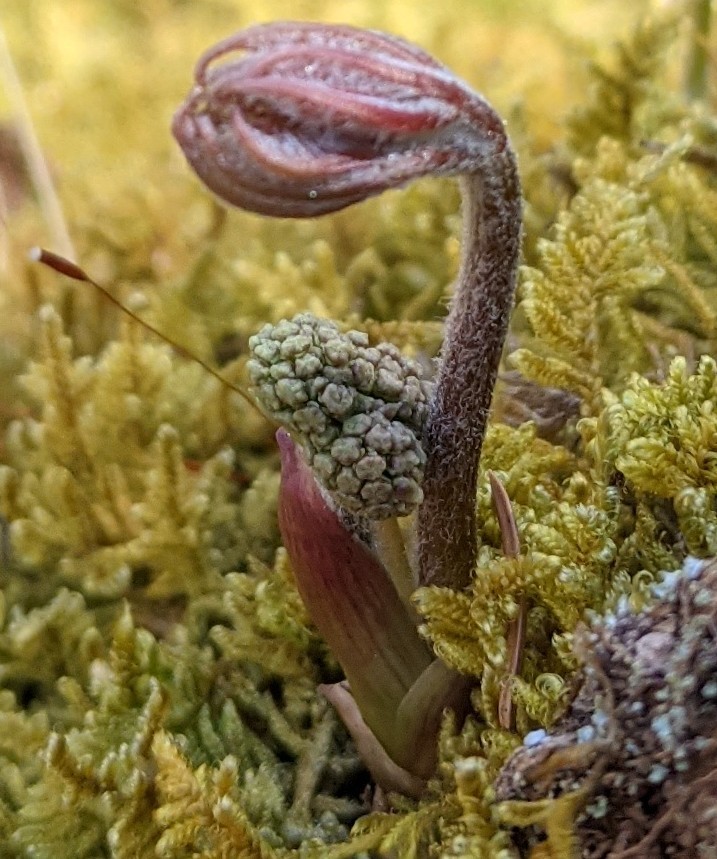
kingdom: Plantae
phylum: Tracheophyta
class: Magnoliopsida
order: Apiales
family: Araliaceae
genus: Aralia
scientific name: Aralia nudicaulis
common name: Wild sarsaparilla
